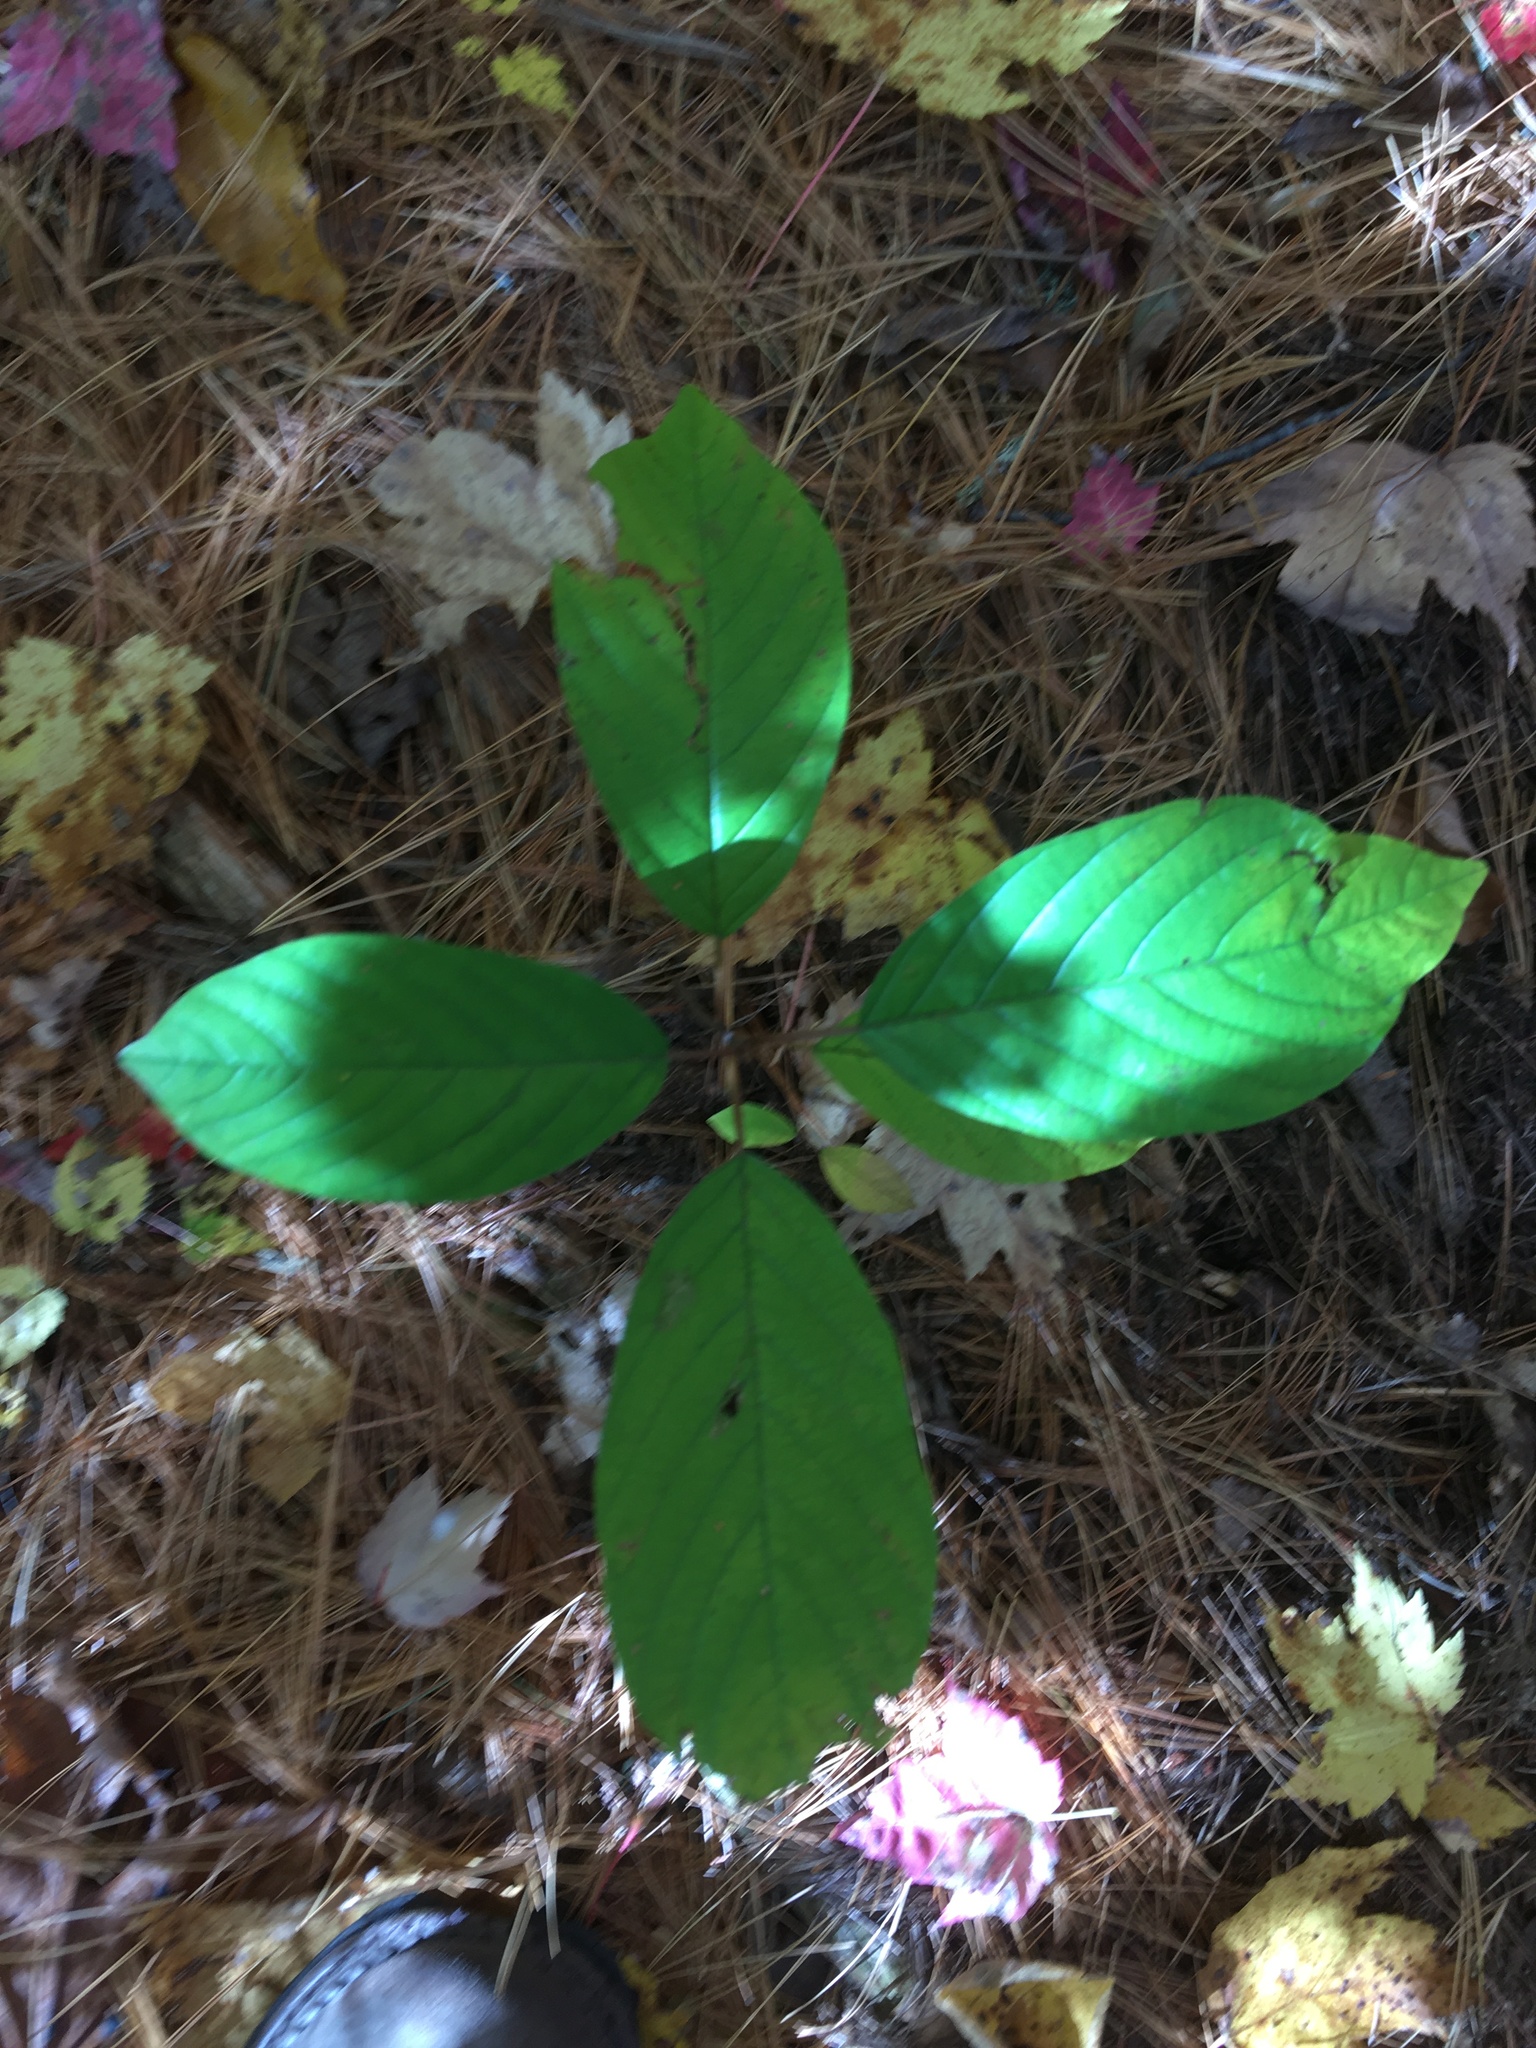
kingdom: Plantae
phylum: Tracheophyta
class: Magnoliopsida
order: Rosales
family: Rhamnaceae
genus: Frangula
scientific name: Frangula alnus
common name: Alder buckthorn
